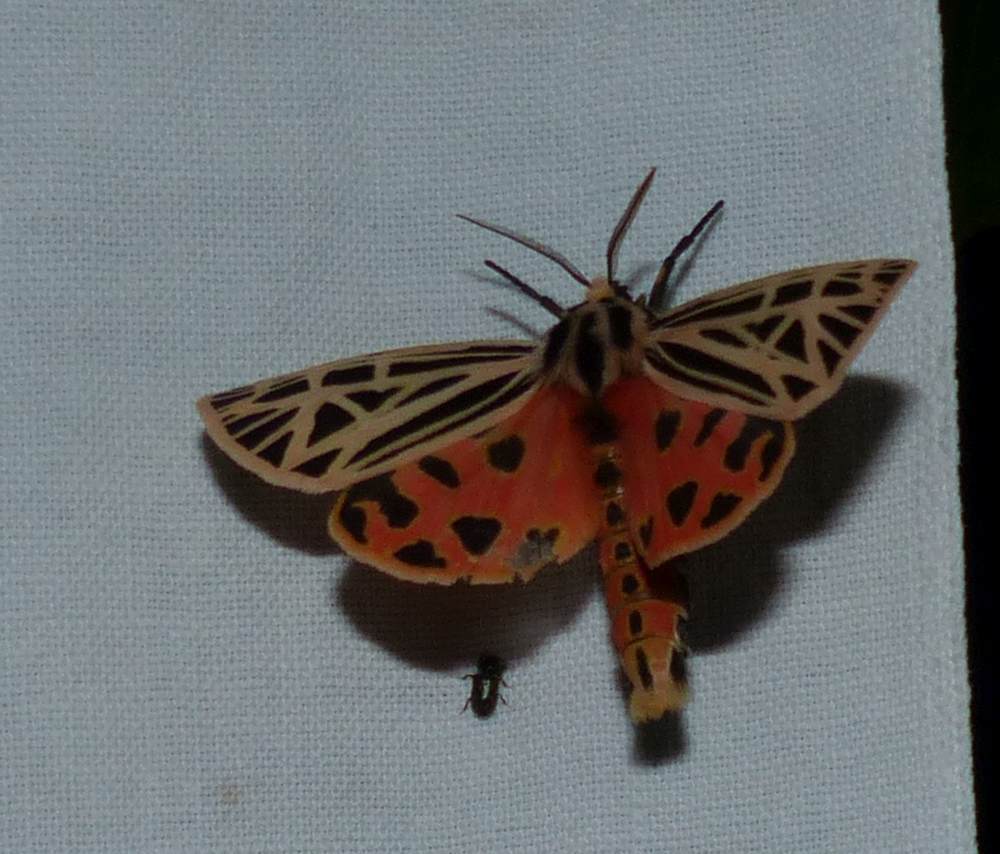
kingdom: Animalia
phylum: Arthropoda
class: Insecta
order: Lepidoptera
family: Erebidae
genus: Grammia
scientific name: Grammia virgo
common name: Virgin tiger moth
